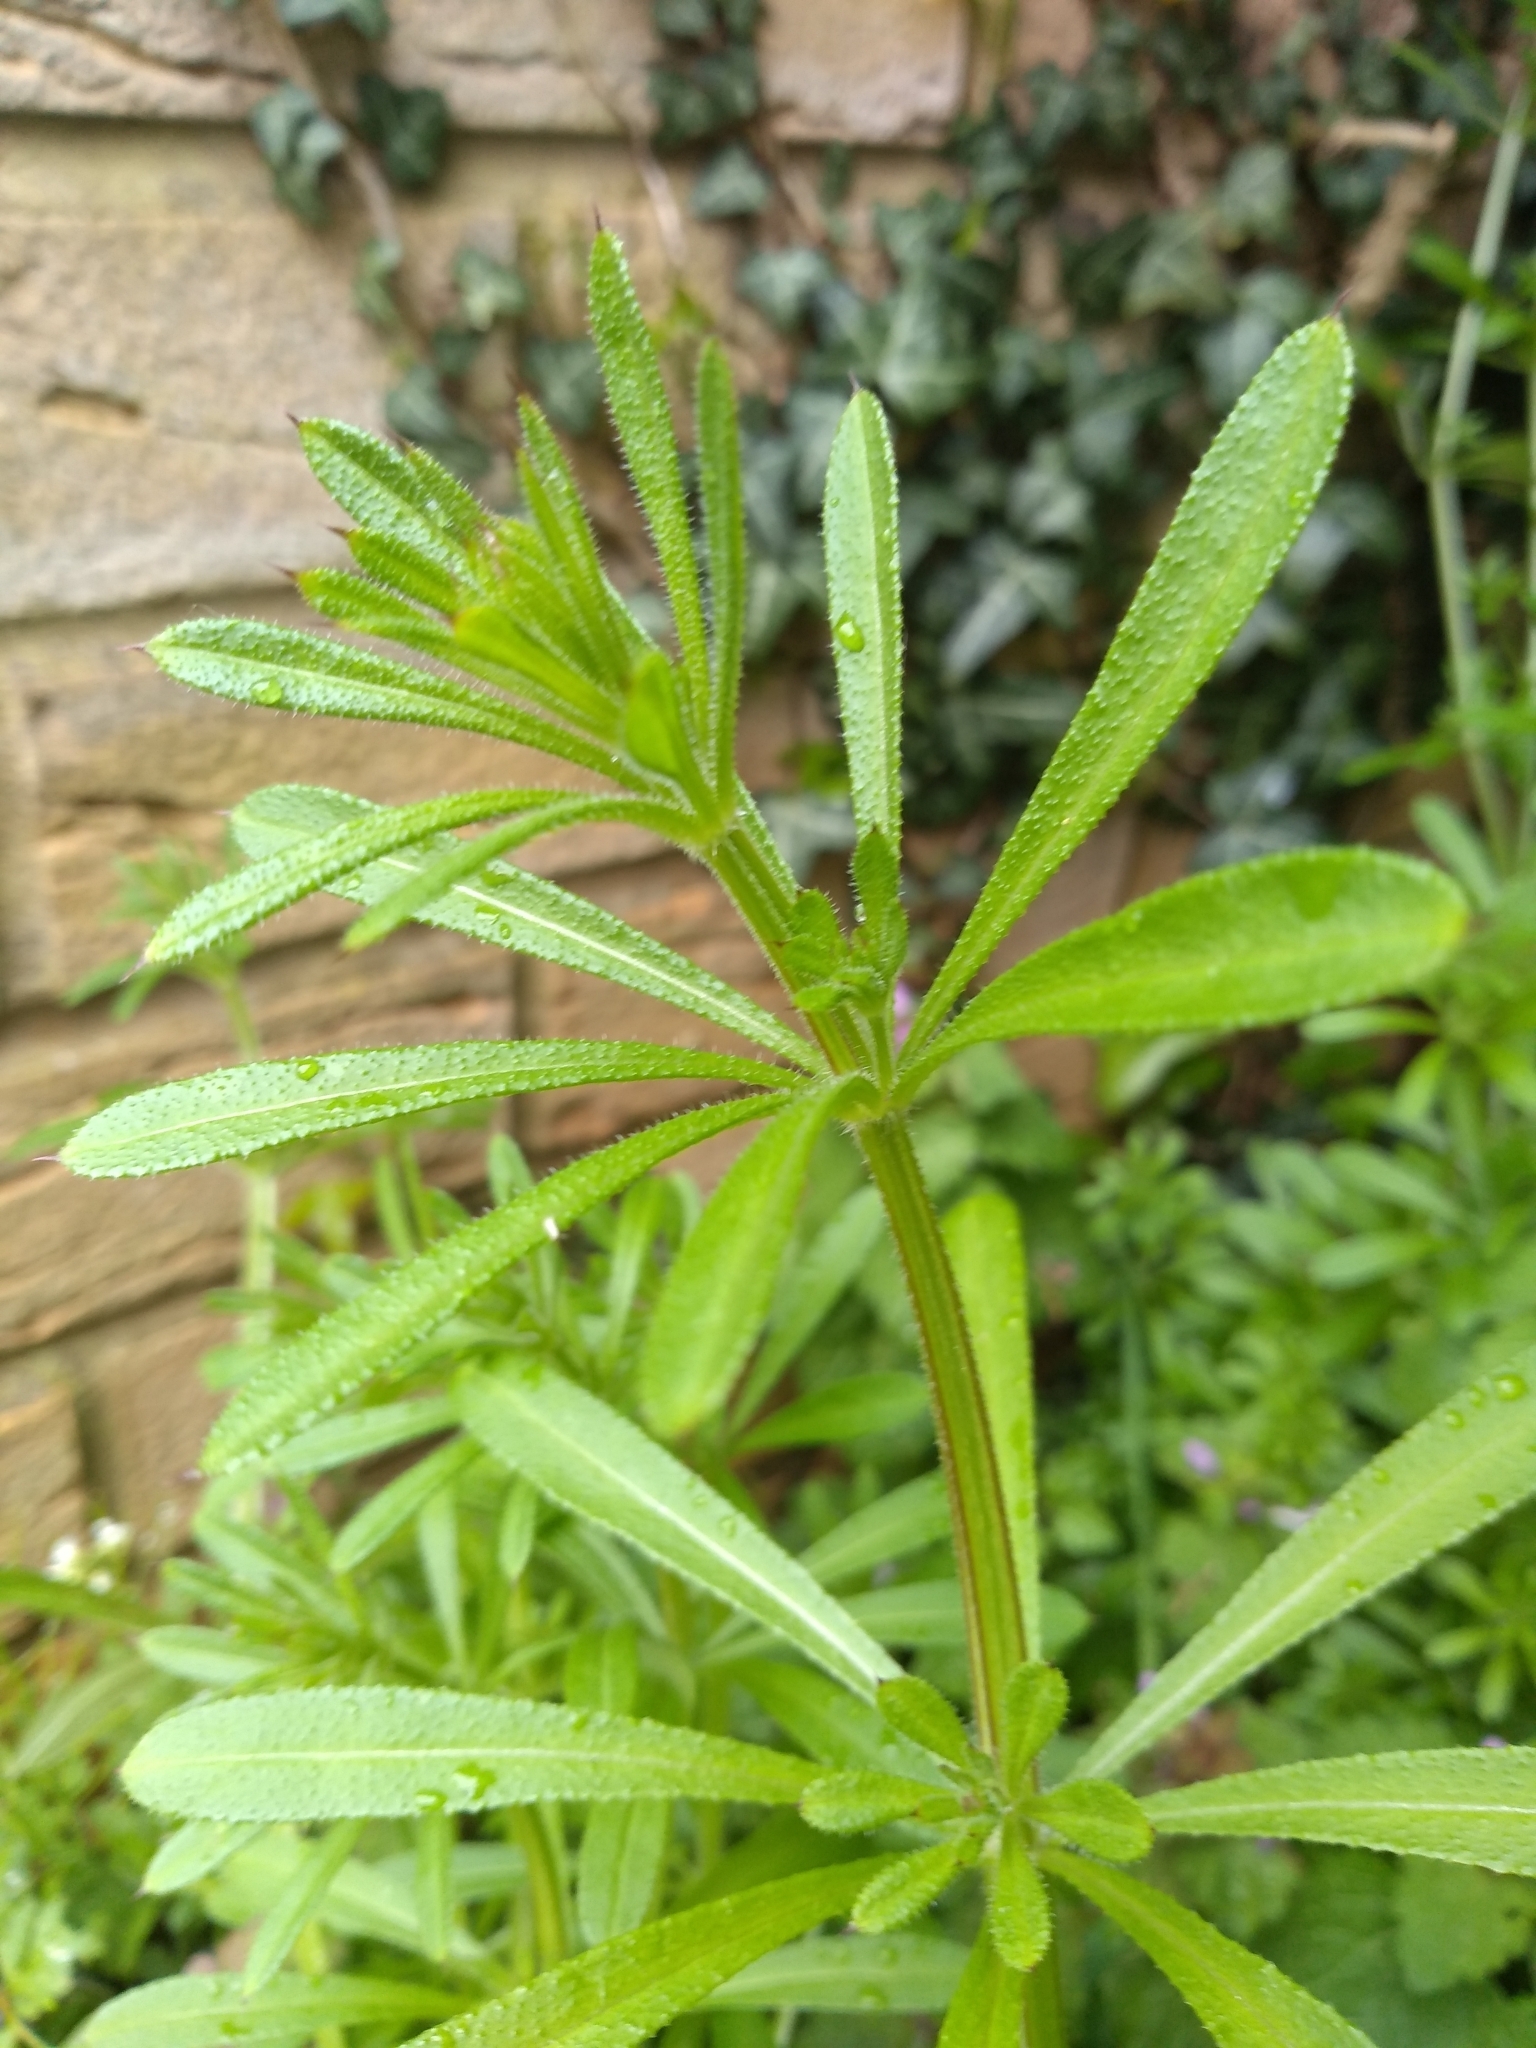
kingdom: Plantae
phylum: Tracheophyta
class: Magnoliopsida
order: Gentianales
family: Rubiaceae
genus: Galium
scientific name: Galium aparine
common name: Cleavers
